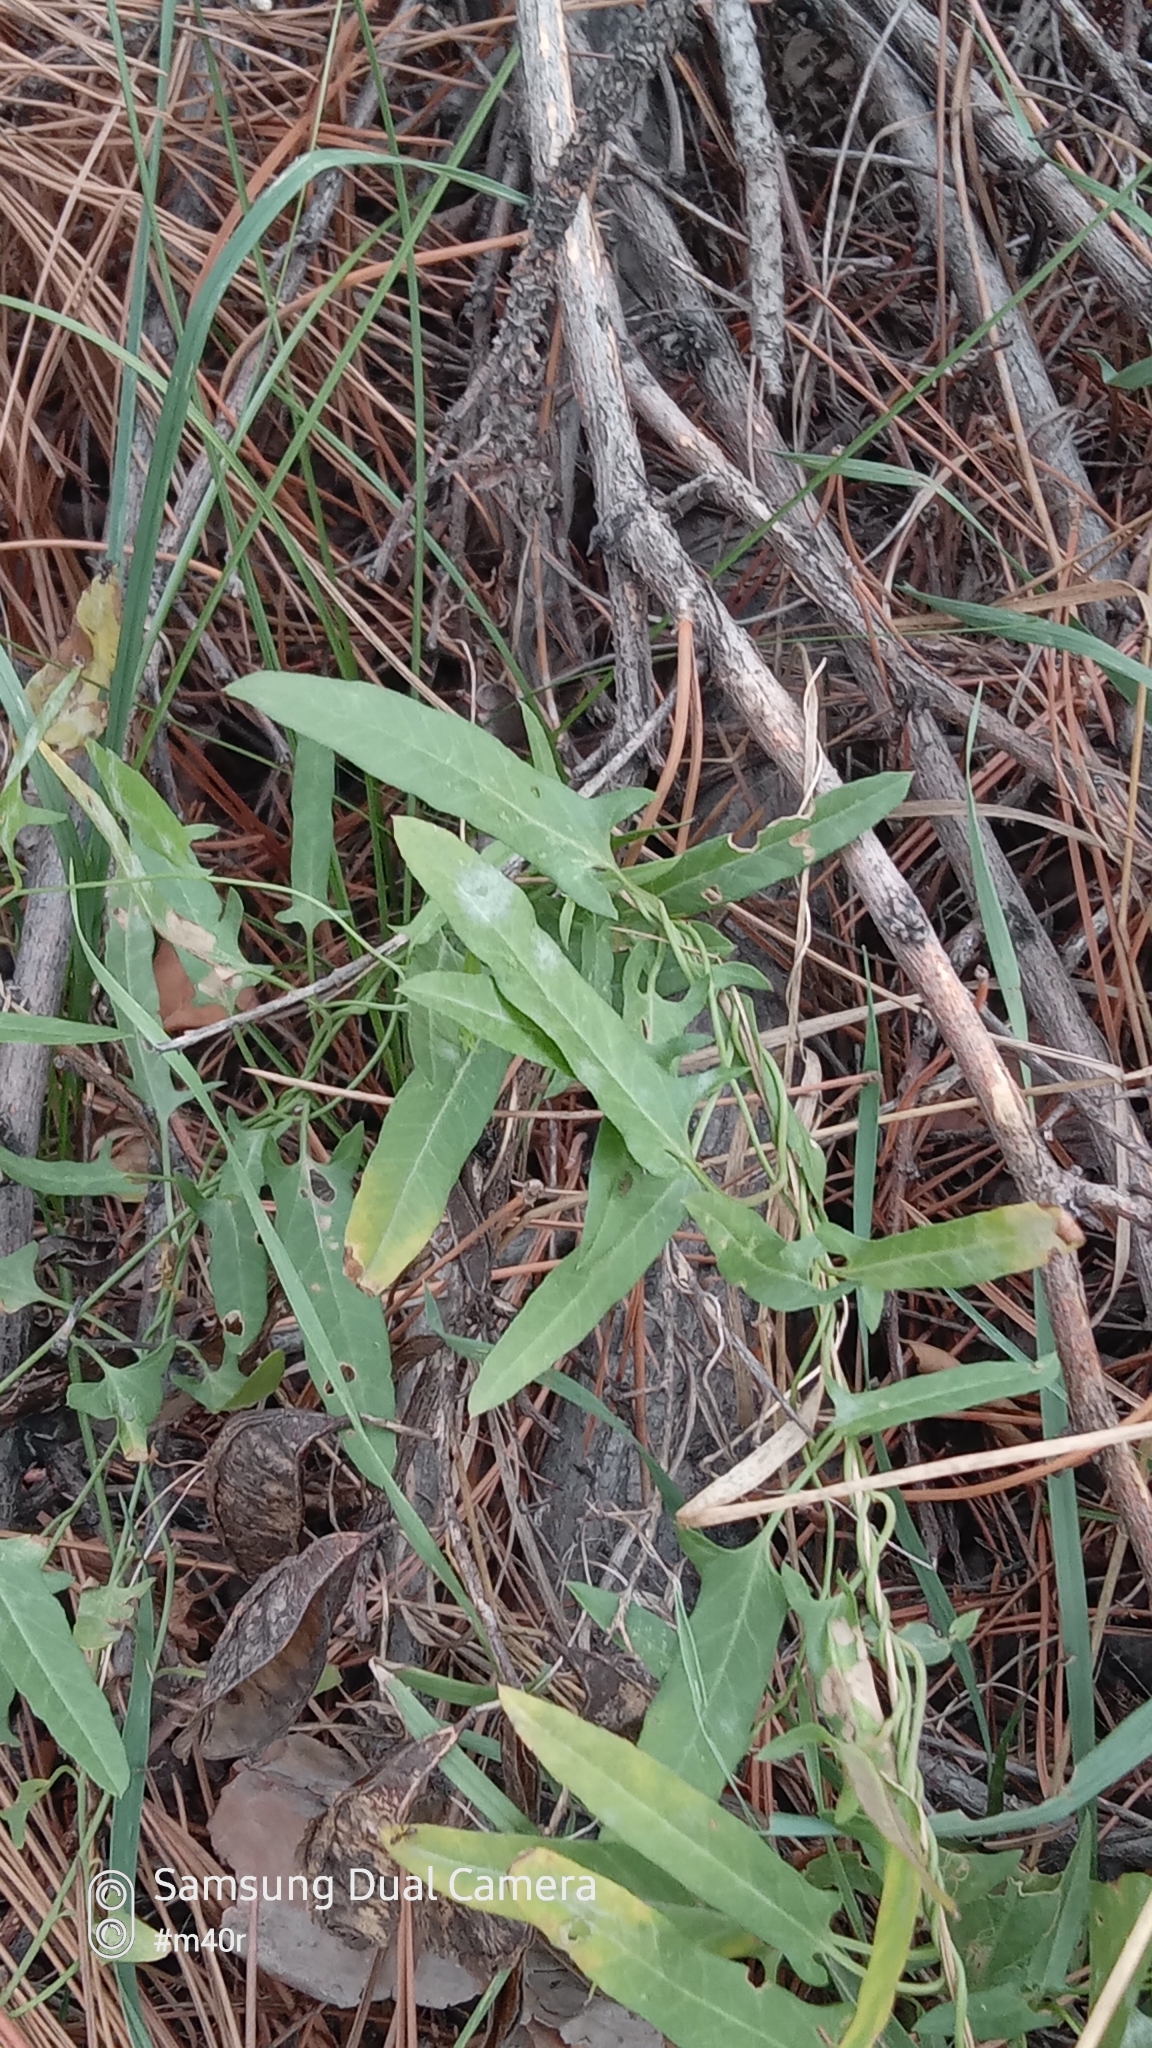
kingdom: Plantae
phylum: Tracheophyta
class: Magnoliopsida
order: Solanales
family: Convolvulaceae
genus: Convolvulus
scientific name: Convolvulus arvensis
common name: Field bindweed
